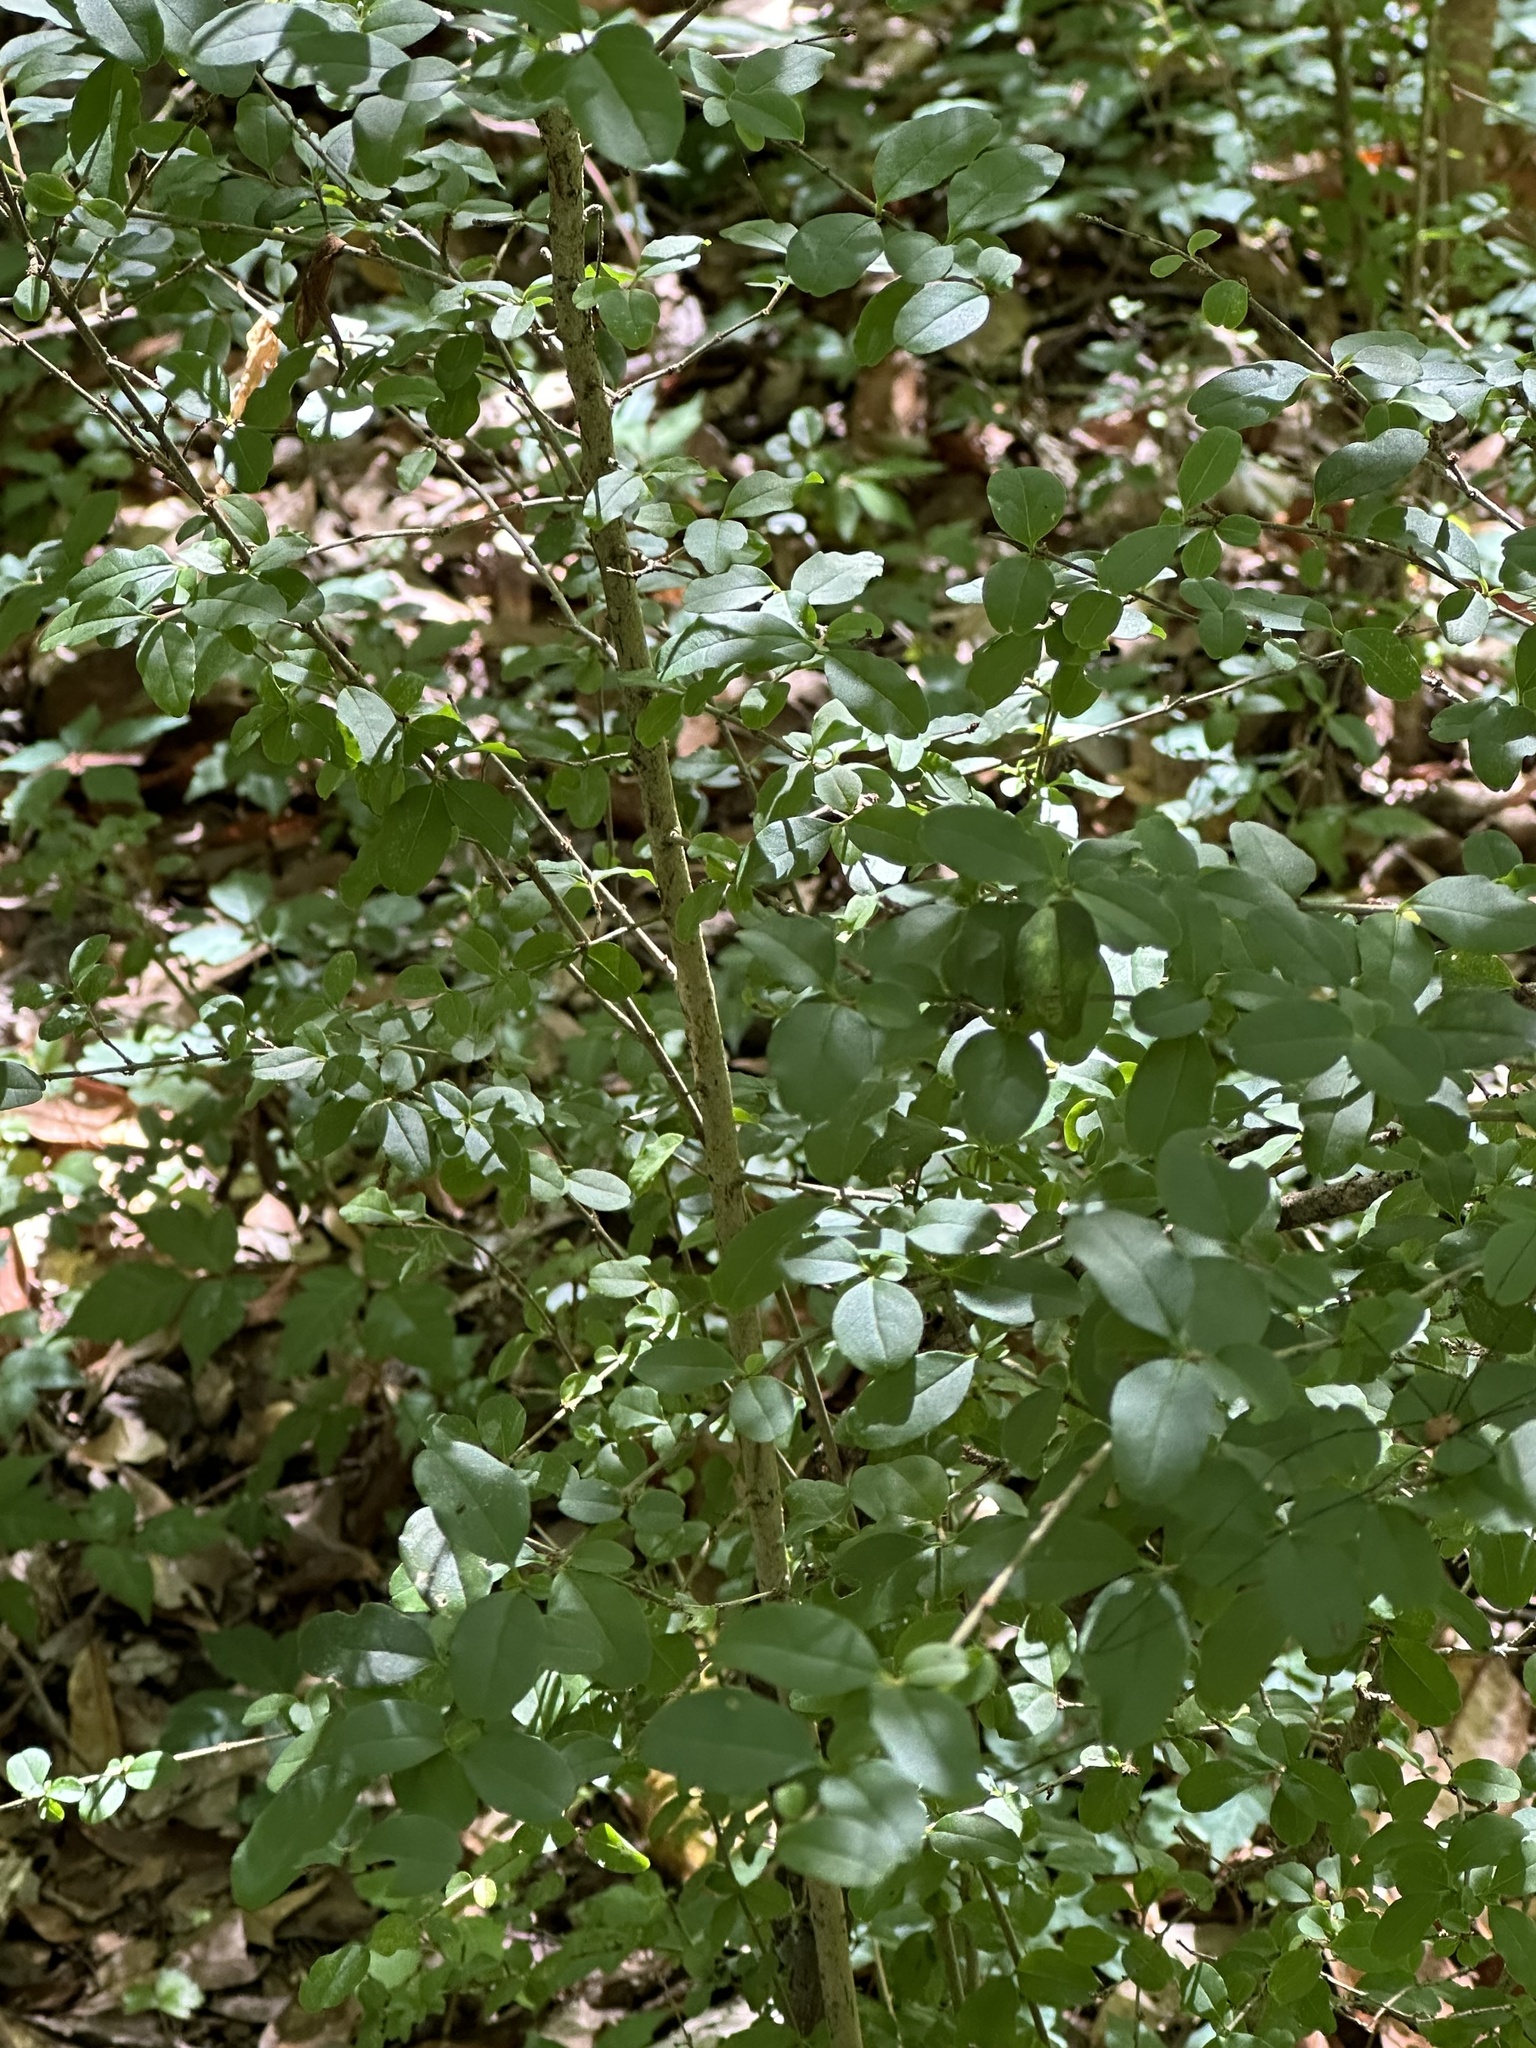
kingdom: Plantae
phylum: Tracheophyta
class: Magnoliopsida
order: Lamiales
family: Oleaceae
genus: Ligustrum
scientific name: Ligustrum sinense
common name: Chinese privet
